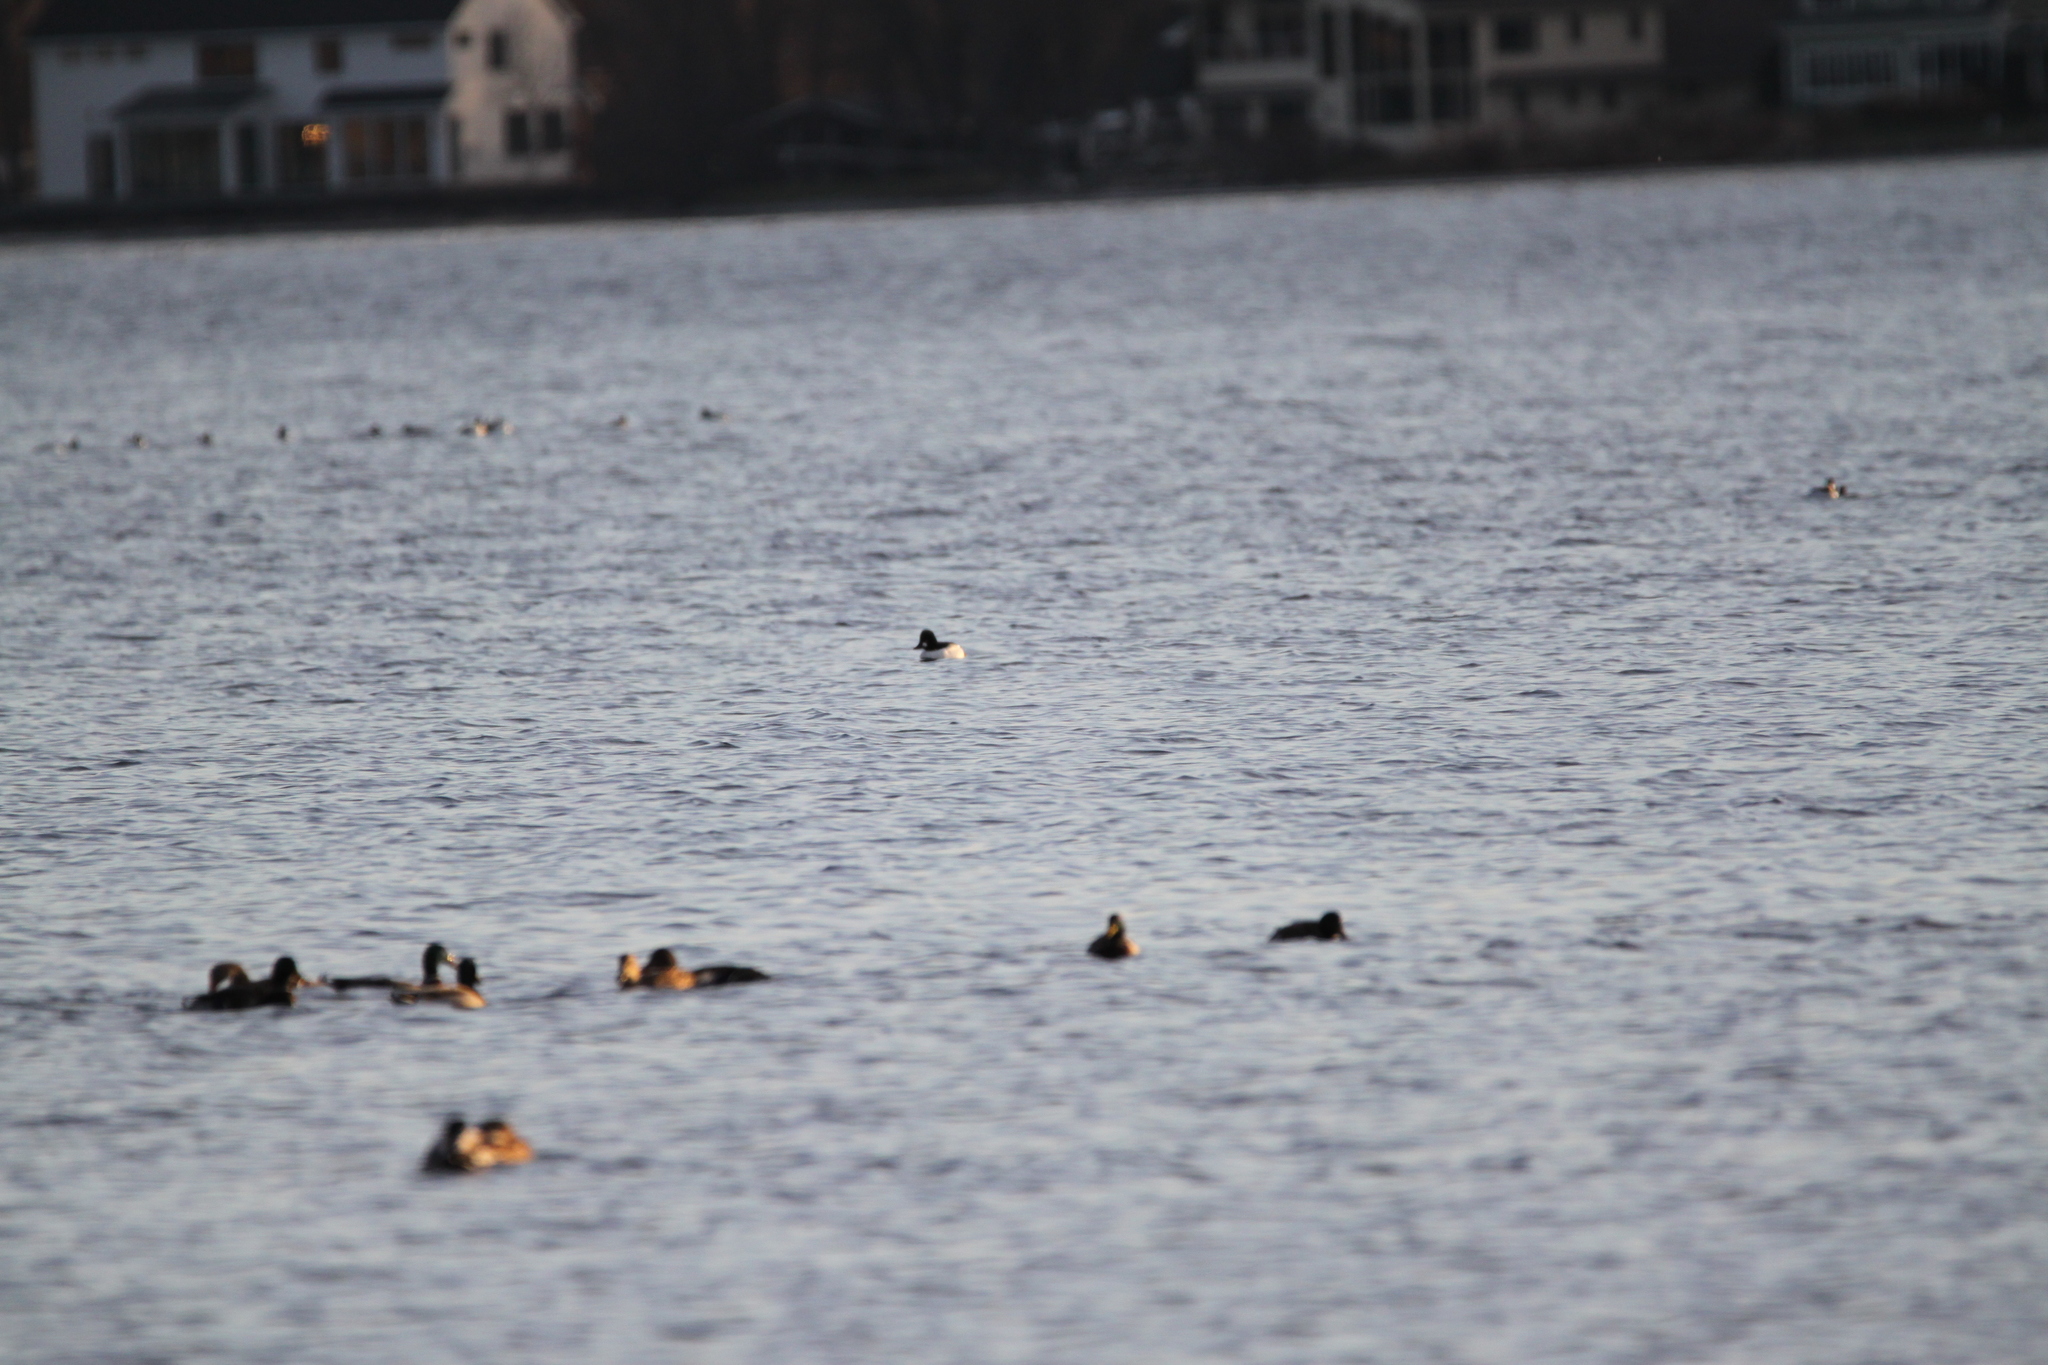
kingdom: Animalia
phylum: Chordata
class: Aves
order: Anseriformes
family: Anatidae
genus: Bucephala
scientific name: Bucephala clangula
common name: Common goldeneye
